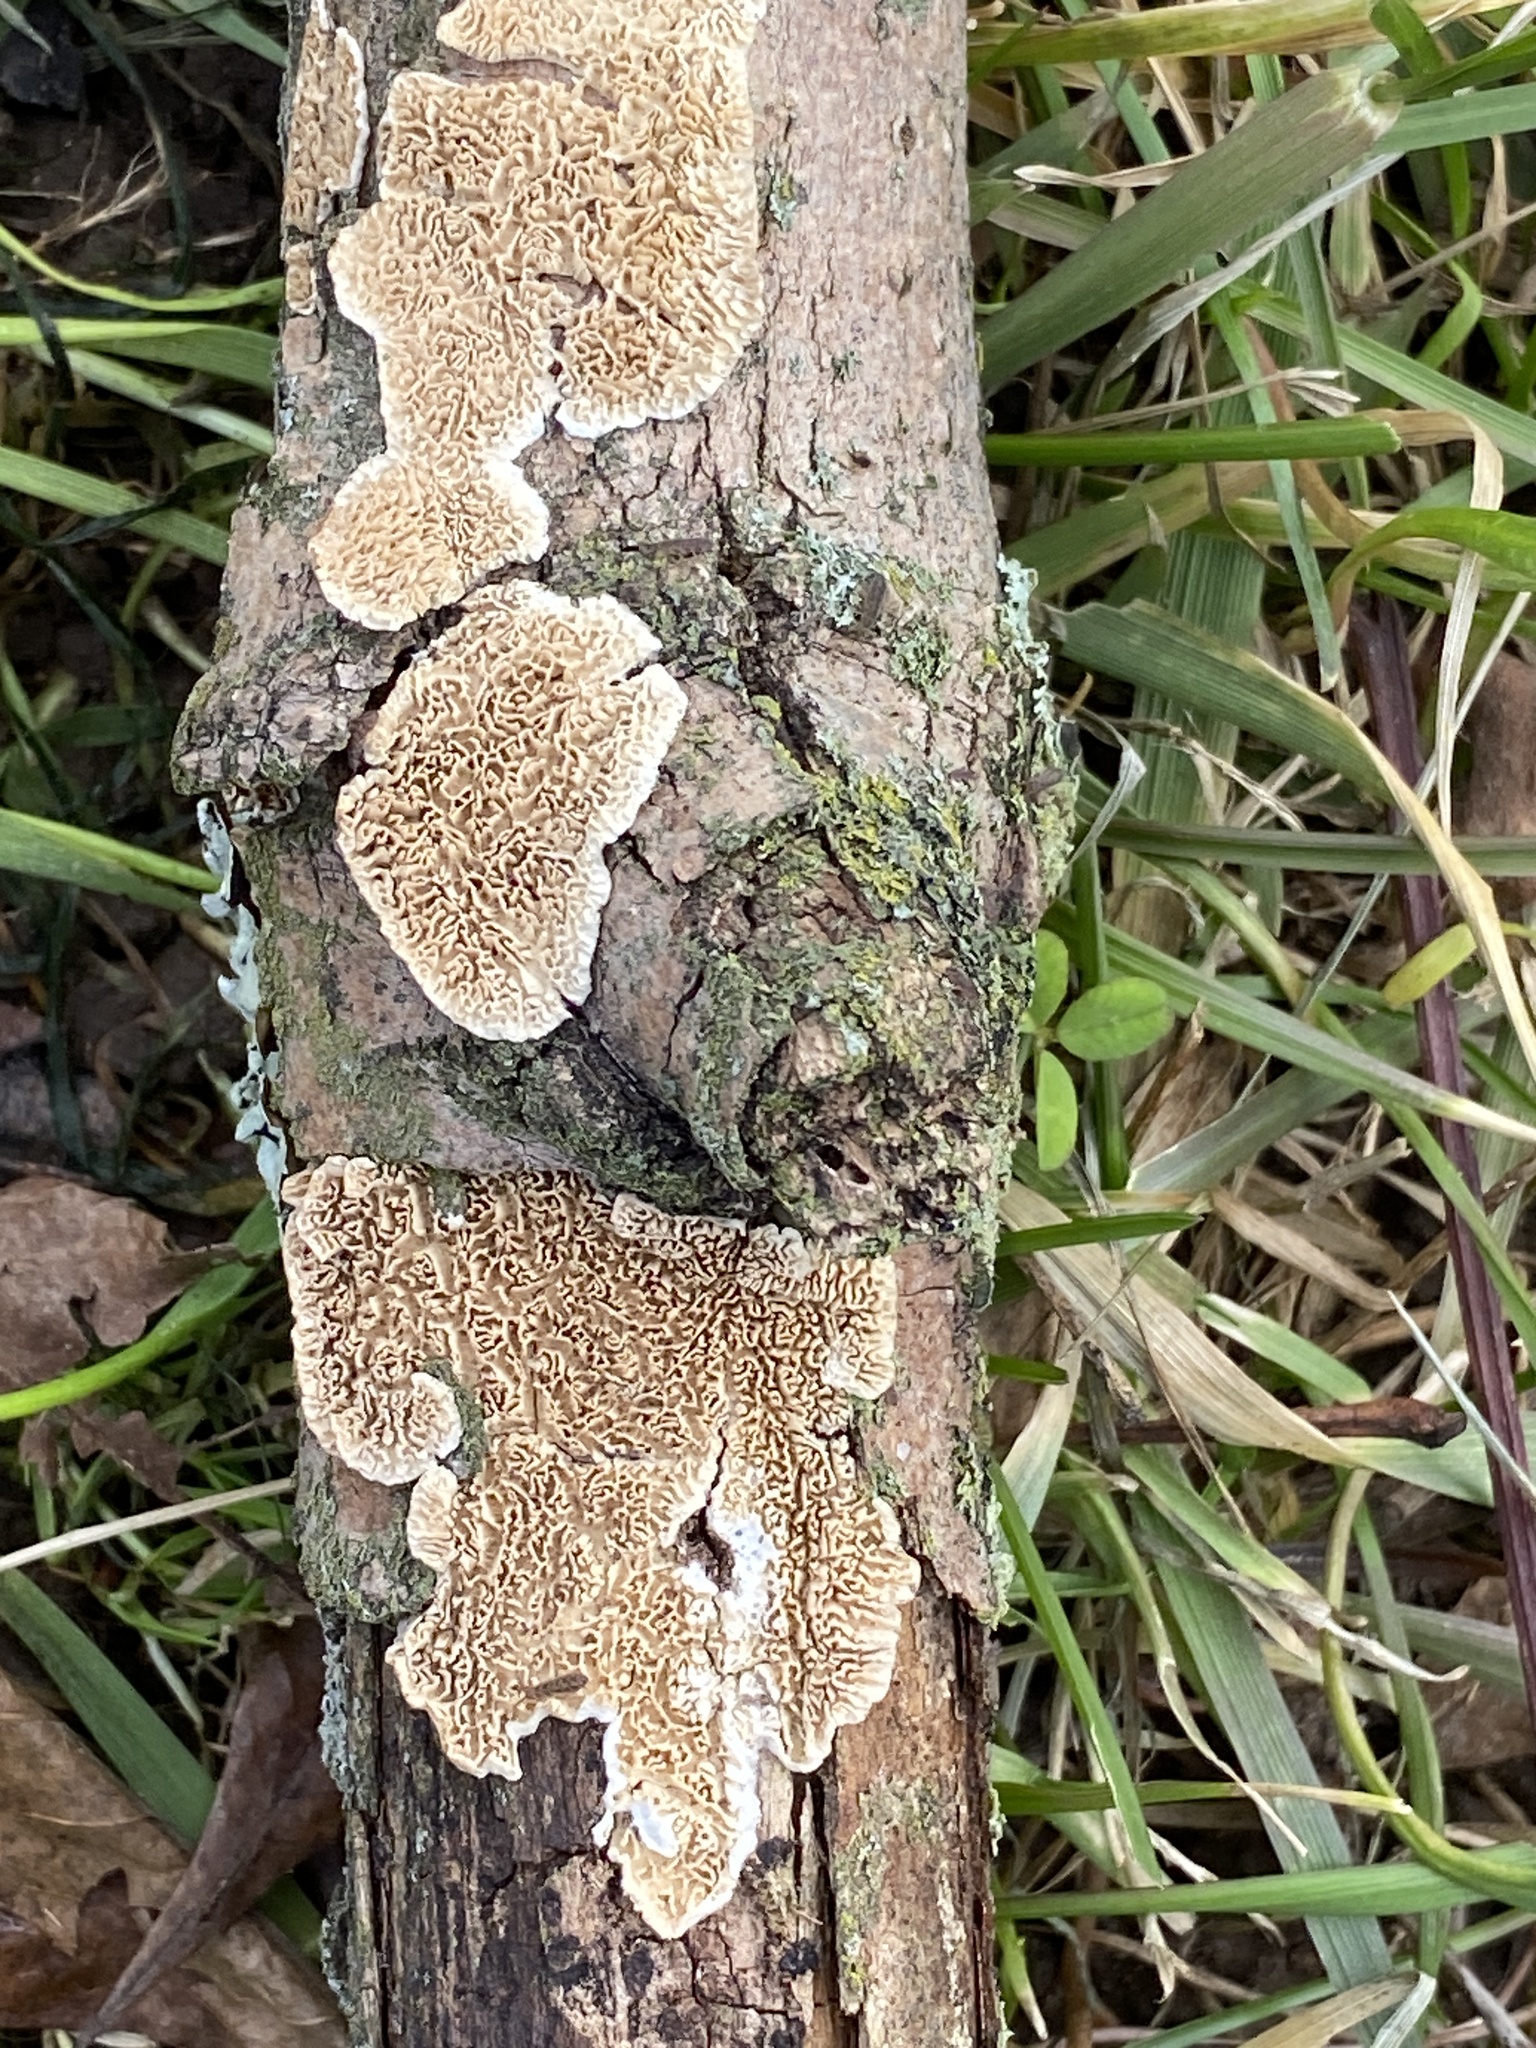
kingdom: Fungi
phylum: Basidiomycota
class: Agaricomycetes
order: Polyporales
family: Irpicaceae
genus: Irpex
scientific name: Irpex lacteus
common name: Milk-white toothed polypore
